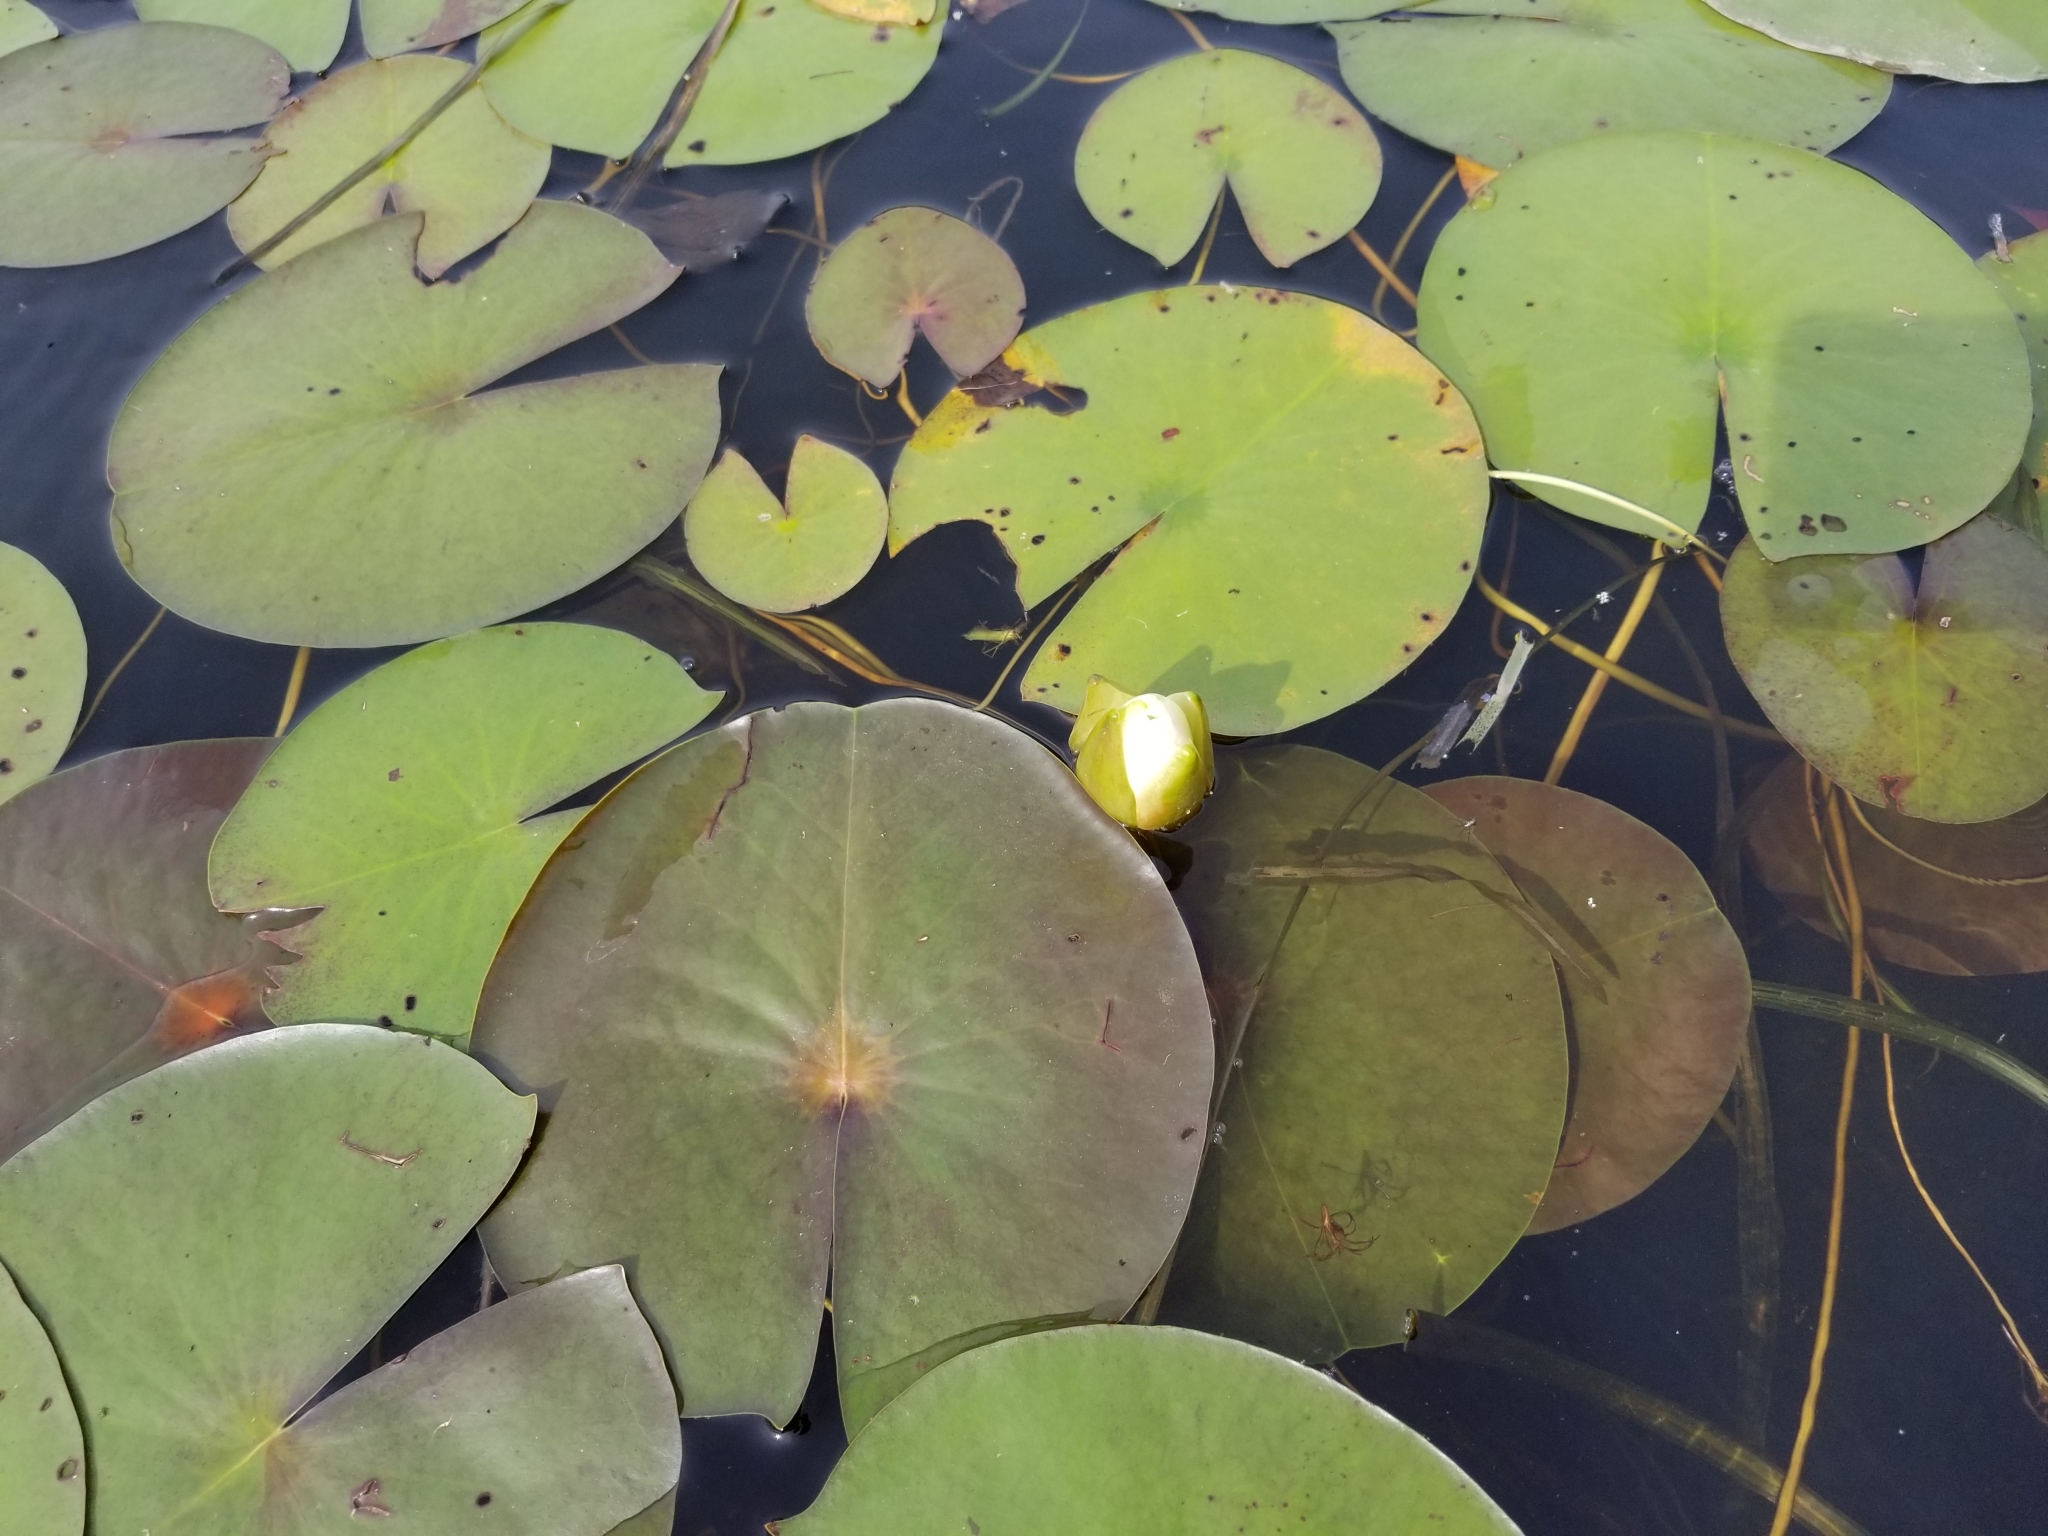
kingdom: Plantae
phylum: Tracheophyta
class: Magnoliopsida
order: Nymphaeales
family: Nymphaeaceae
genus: Nymphaea
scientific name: Nymphaea odorata
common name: Fragrant water-lily
